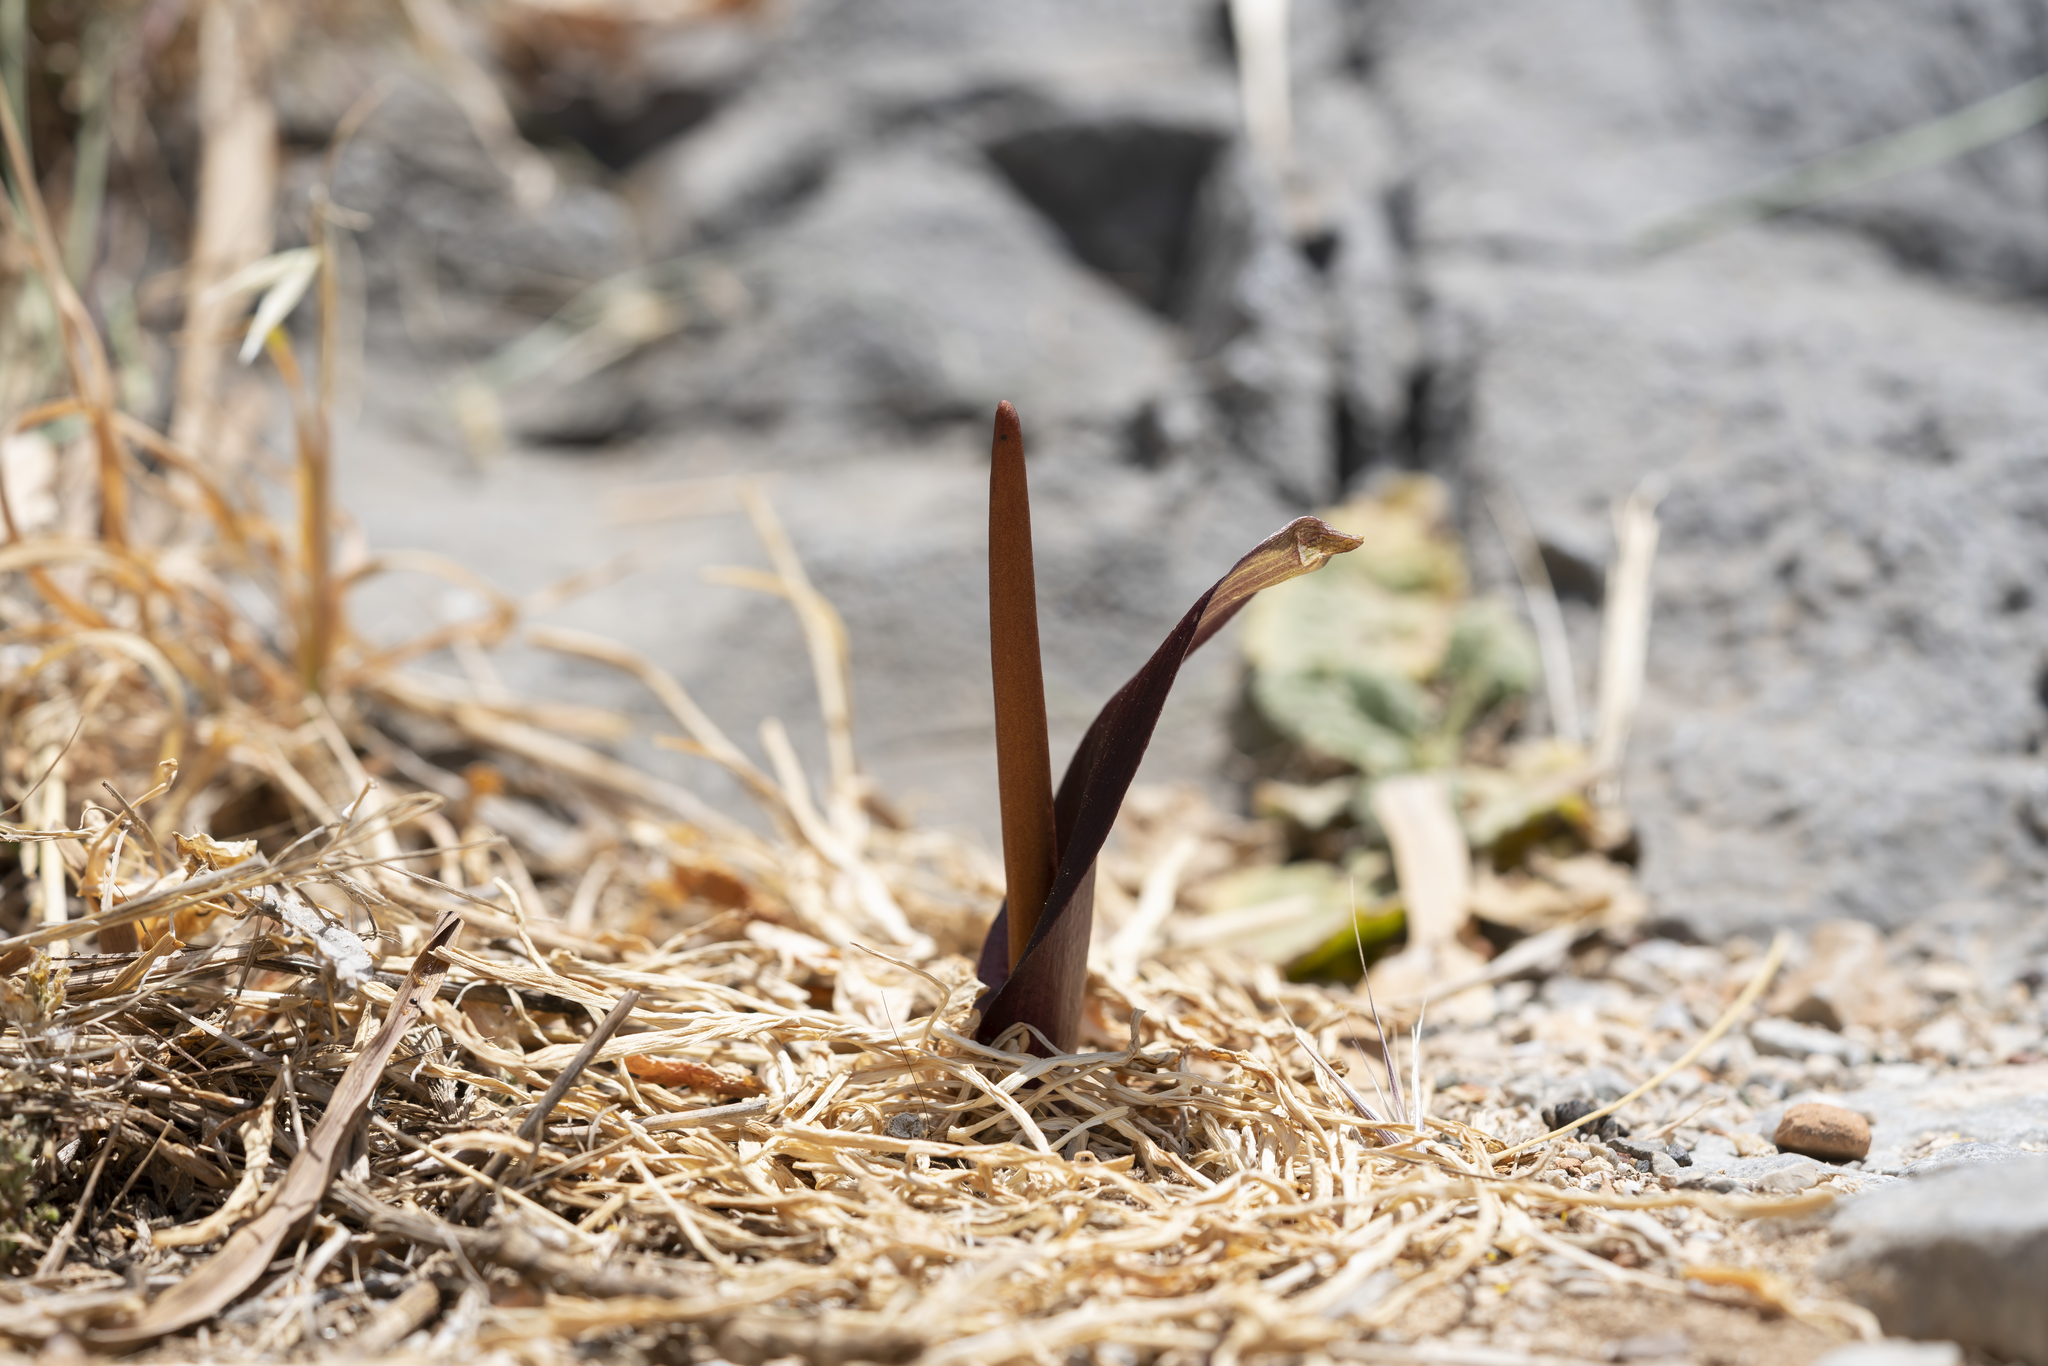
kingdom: Plantae
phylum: Tracheophyta
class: Liliopsida
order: Alismatales
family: Araceae
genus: Biarum
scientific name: Biarum tenuifolium
